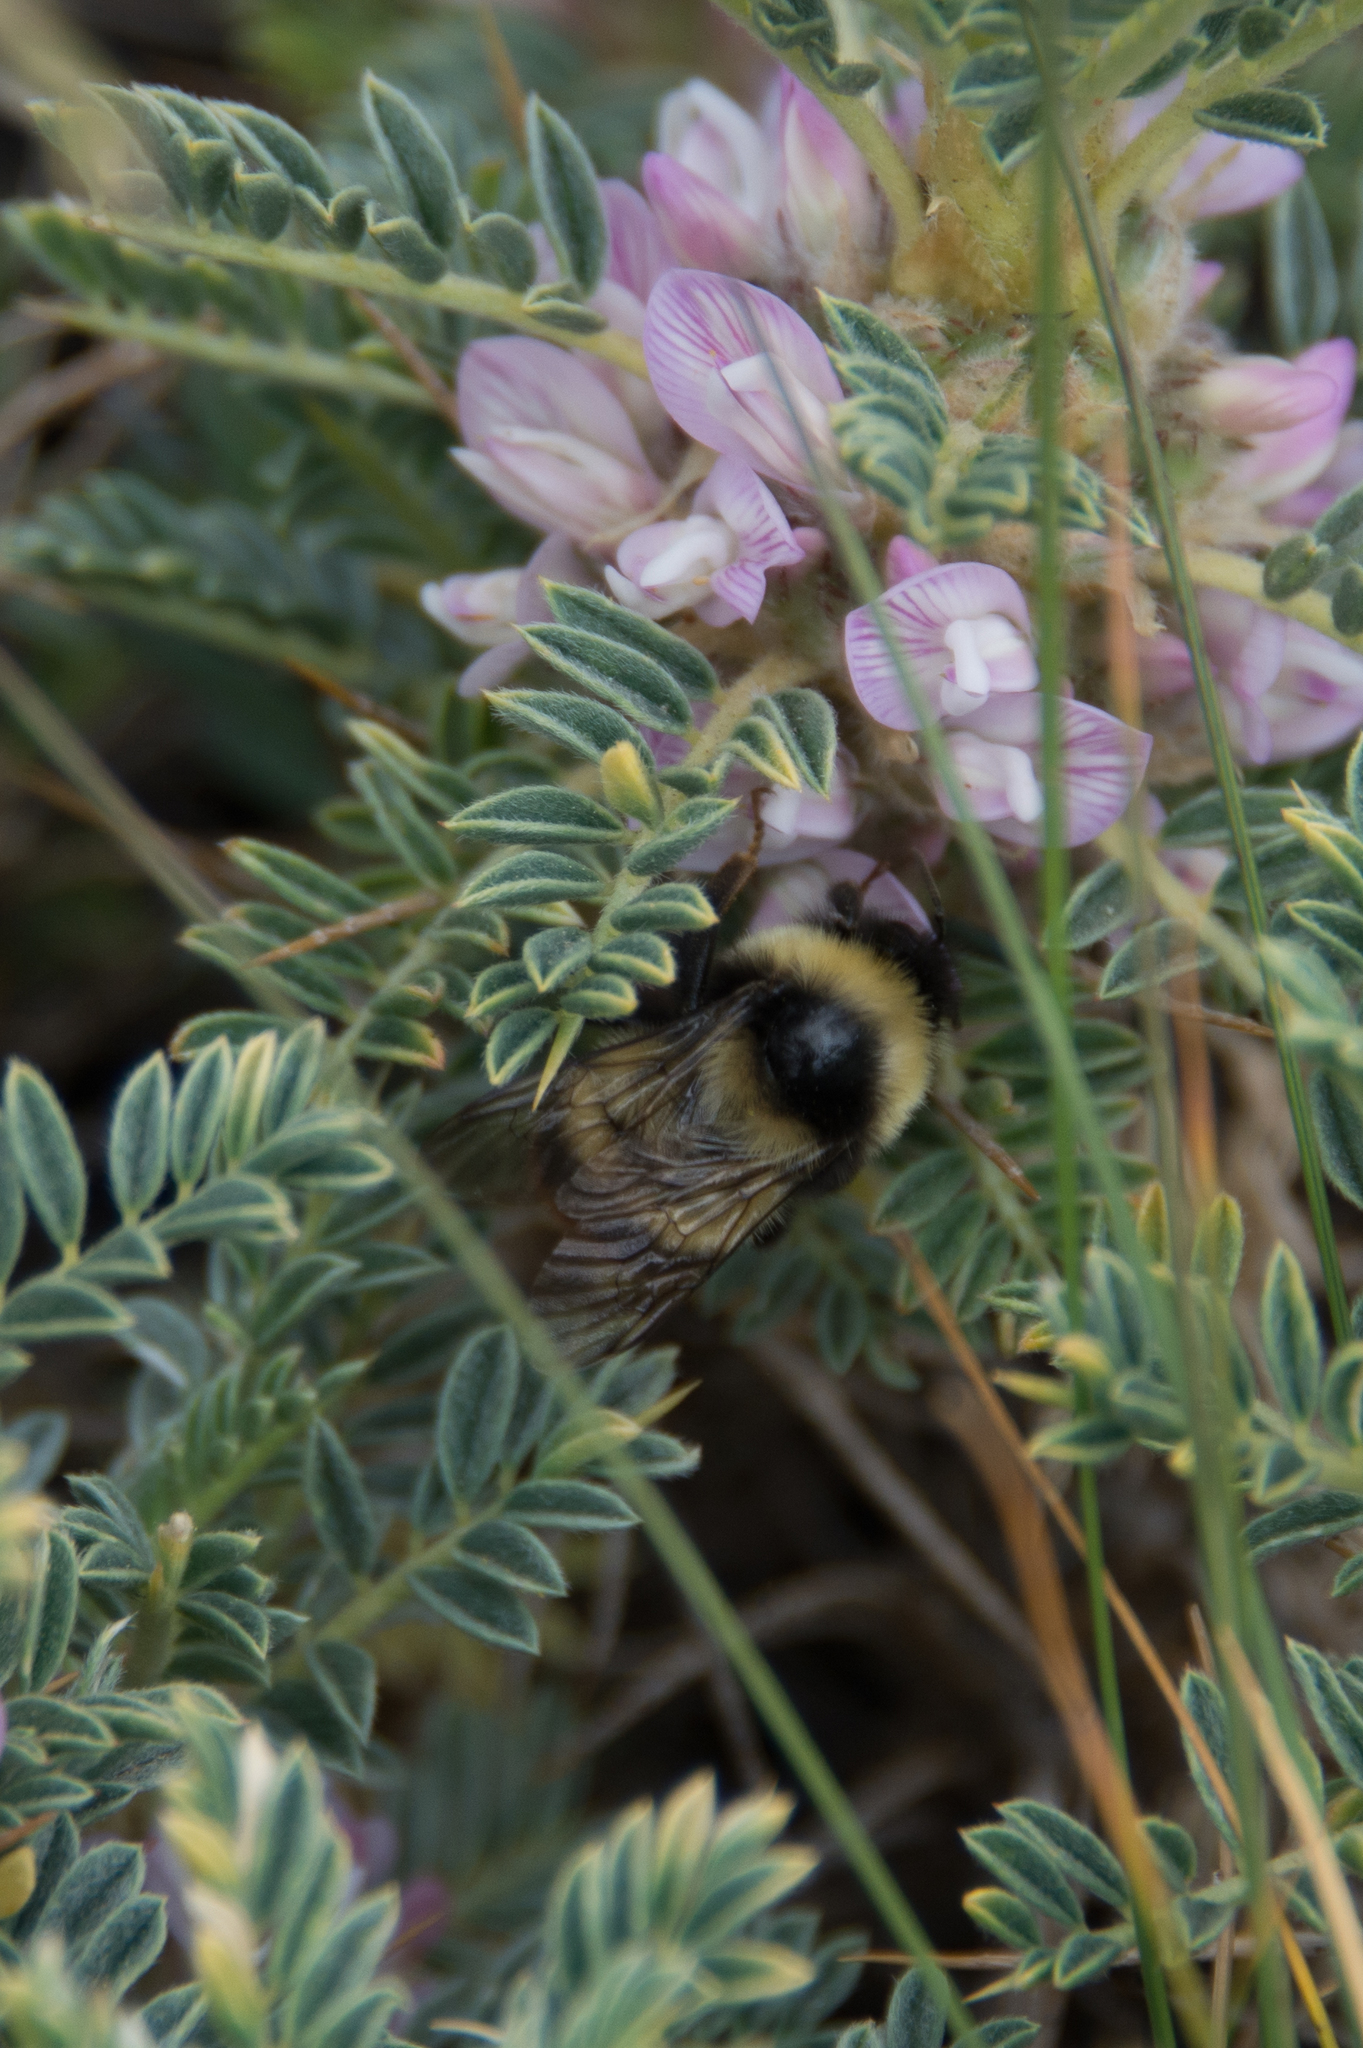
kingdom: Animalia
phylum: Arthropoda
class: Insecta
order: Hymenoptera
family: Apidae
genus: Bombus
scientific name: Bombus lapidarius
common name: Large red-tailed humble-bee
